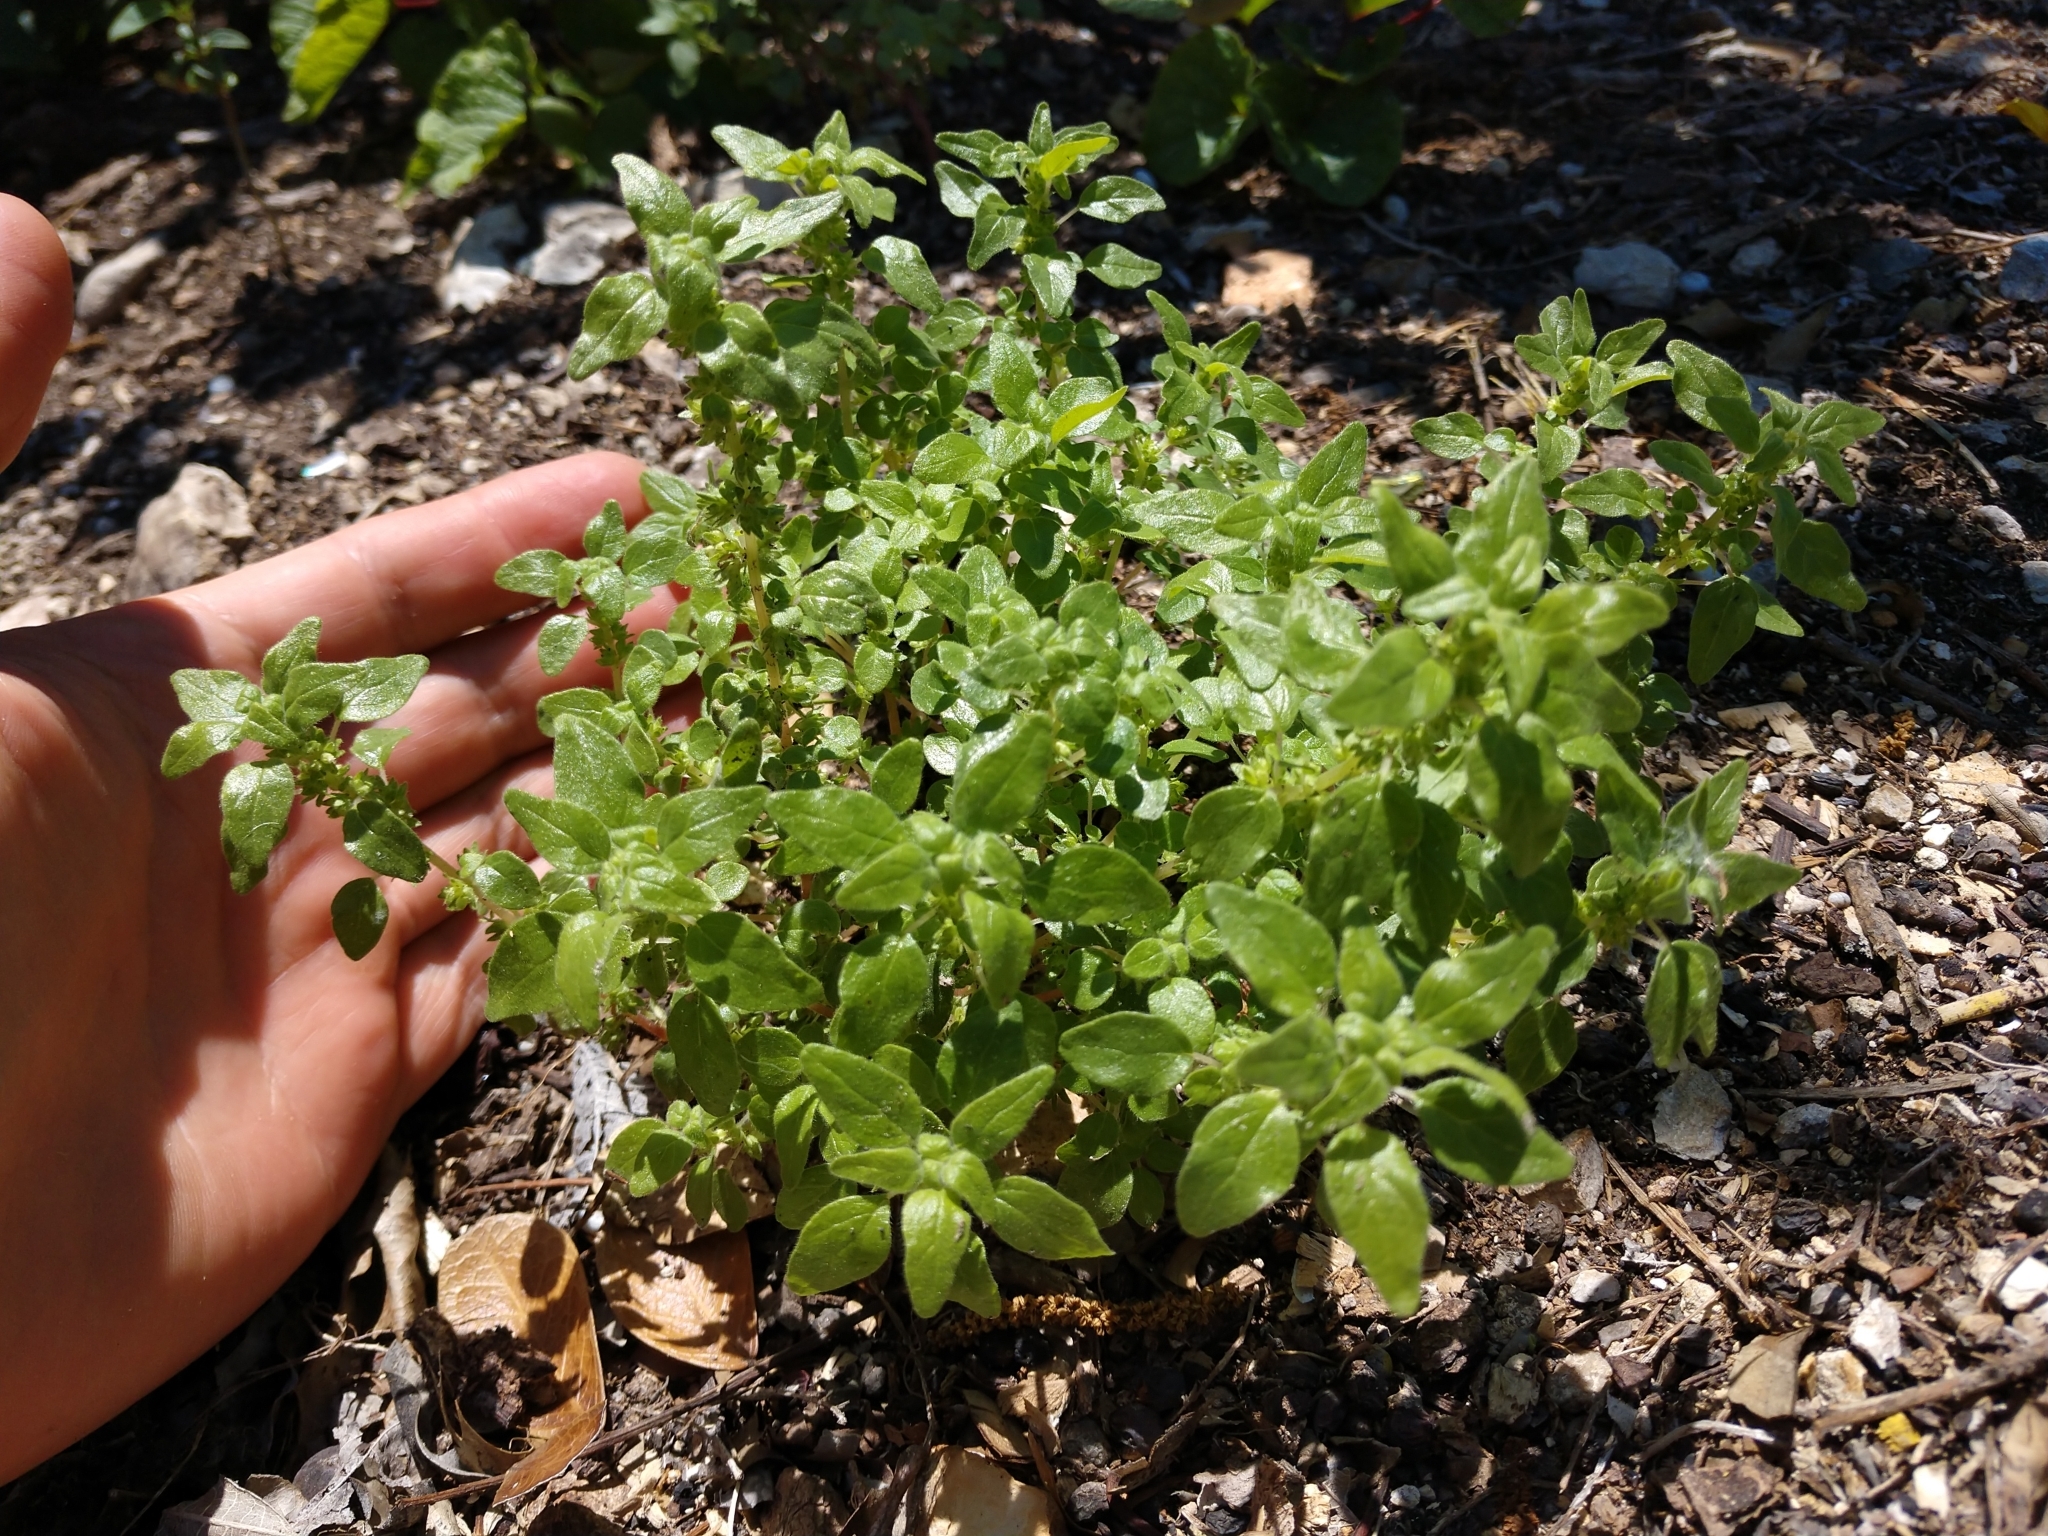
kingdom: Plantae
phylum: Tracheophyta
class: Magnoliopsida
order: Rosales
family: Urticaceae
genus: Parietaria
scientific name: Parietaria pensylvanica
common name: Pennsylvania pellitory
